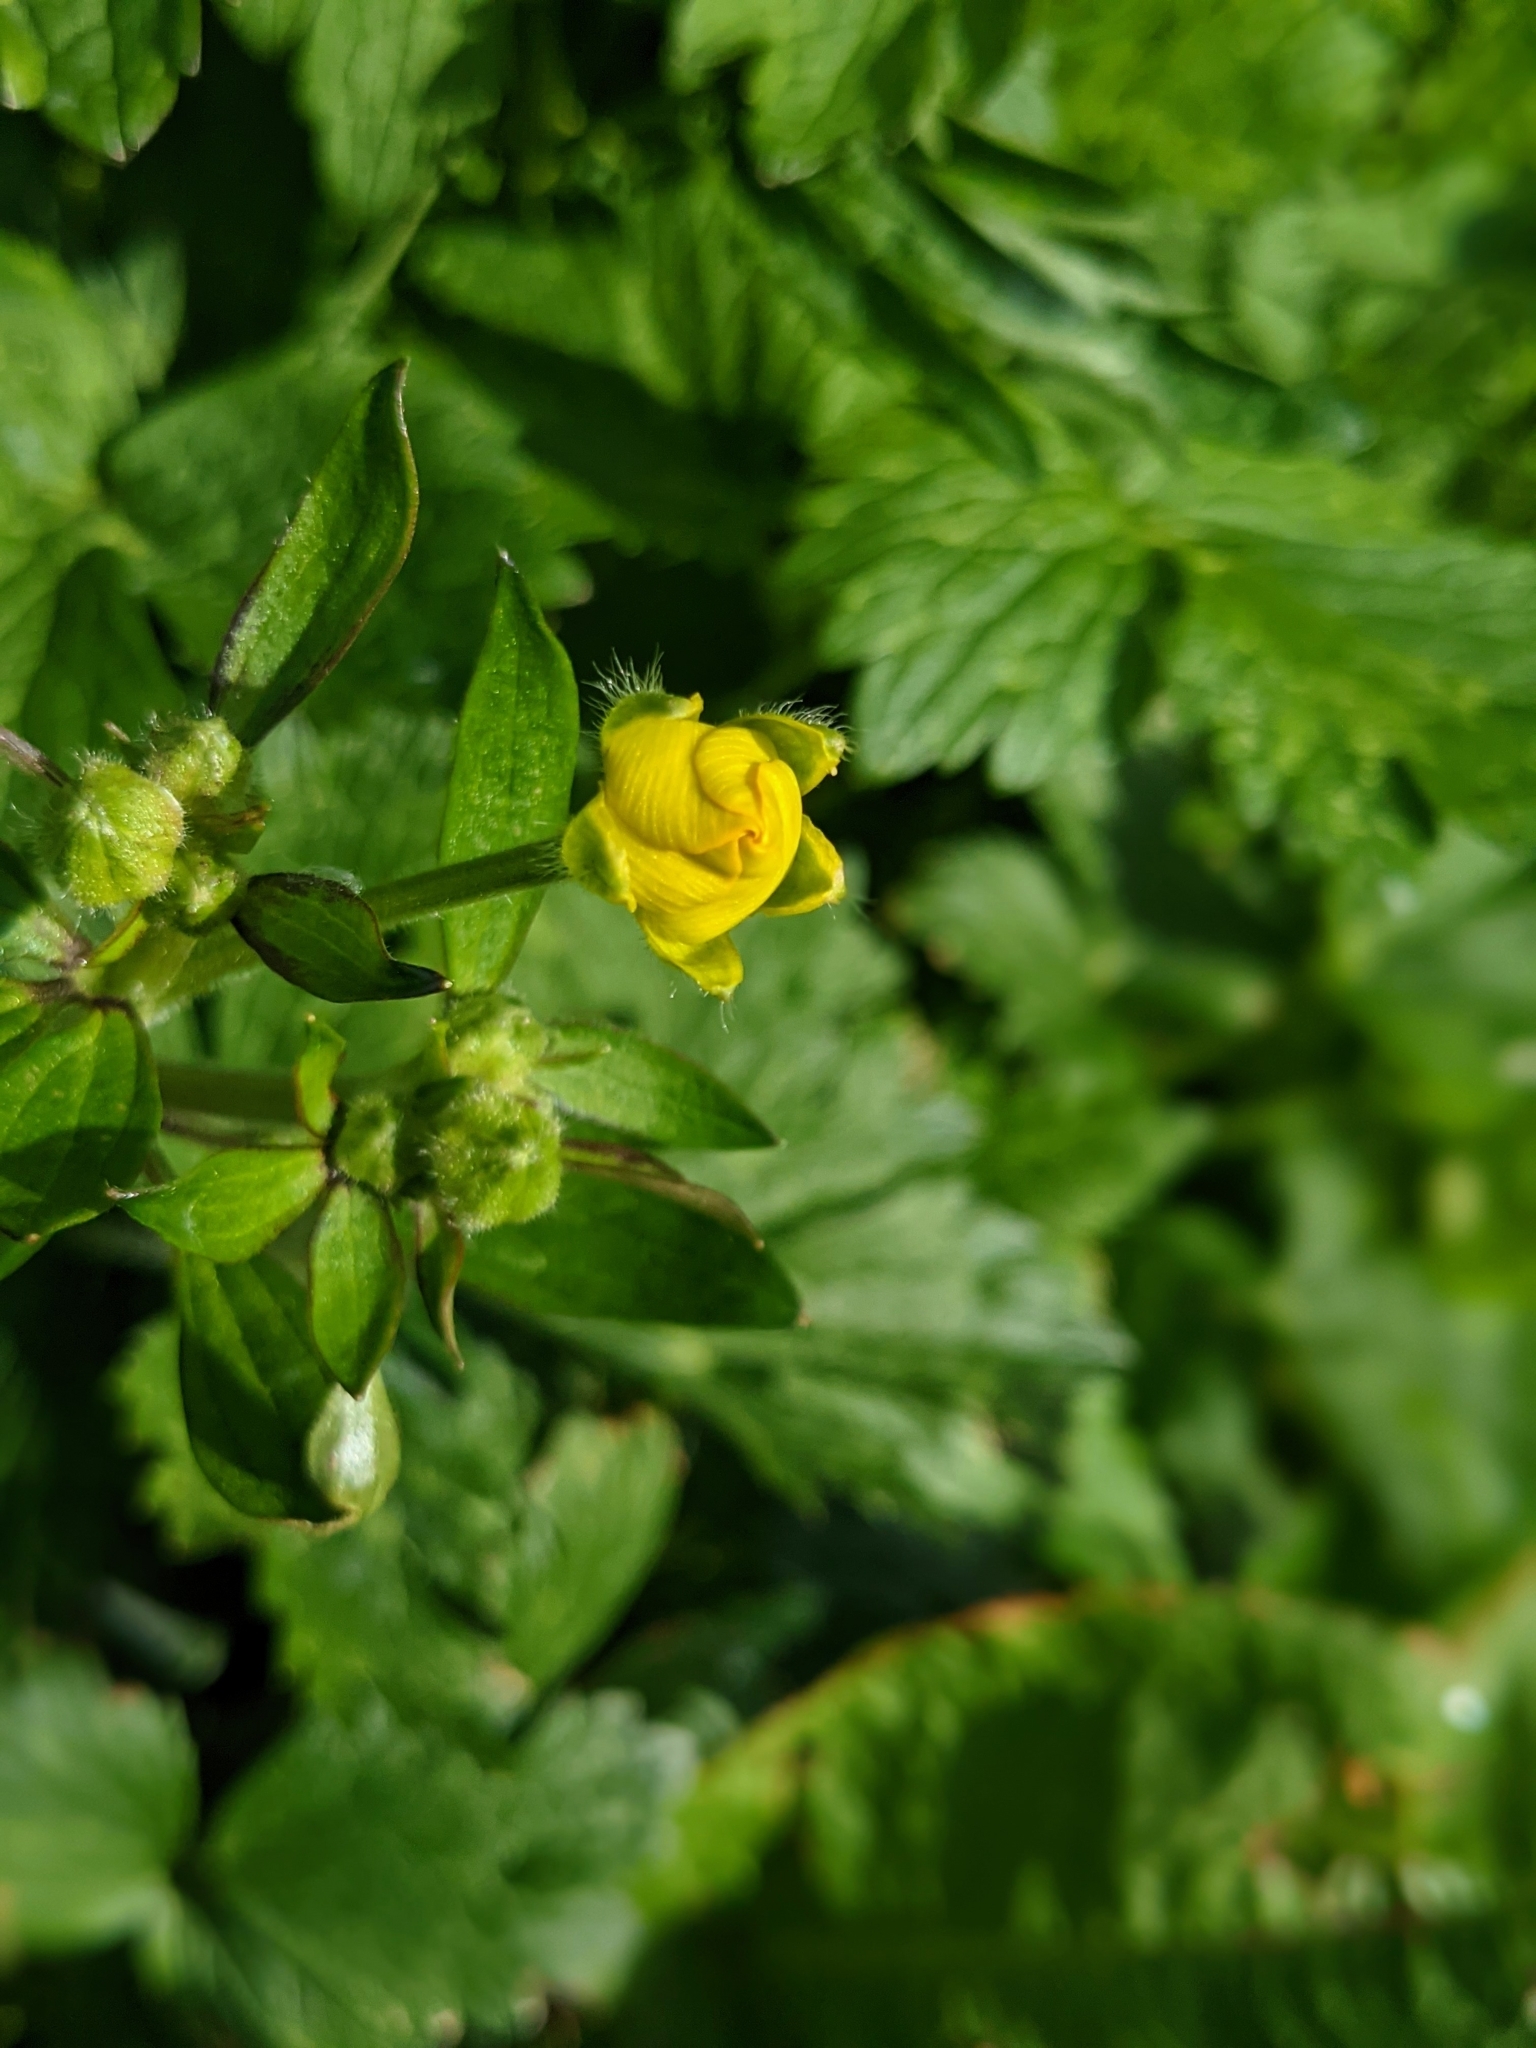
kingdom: Plantae
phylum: Tracheophyta
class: Magnoliopsida
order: Ranunculales
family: Ranunculaceae
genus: Ranunculus
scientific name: Ranunculus repens
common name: Creeping buttercup
